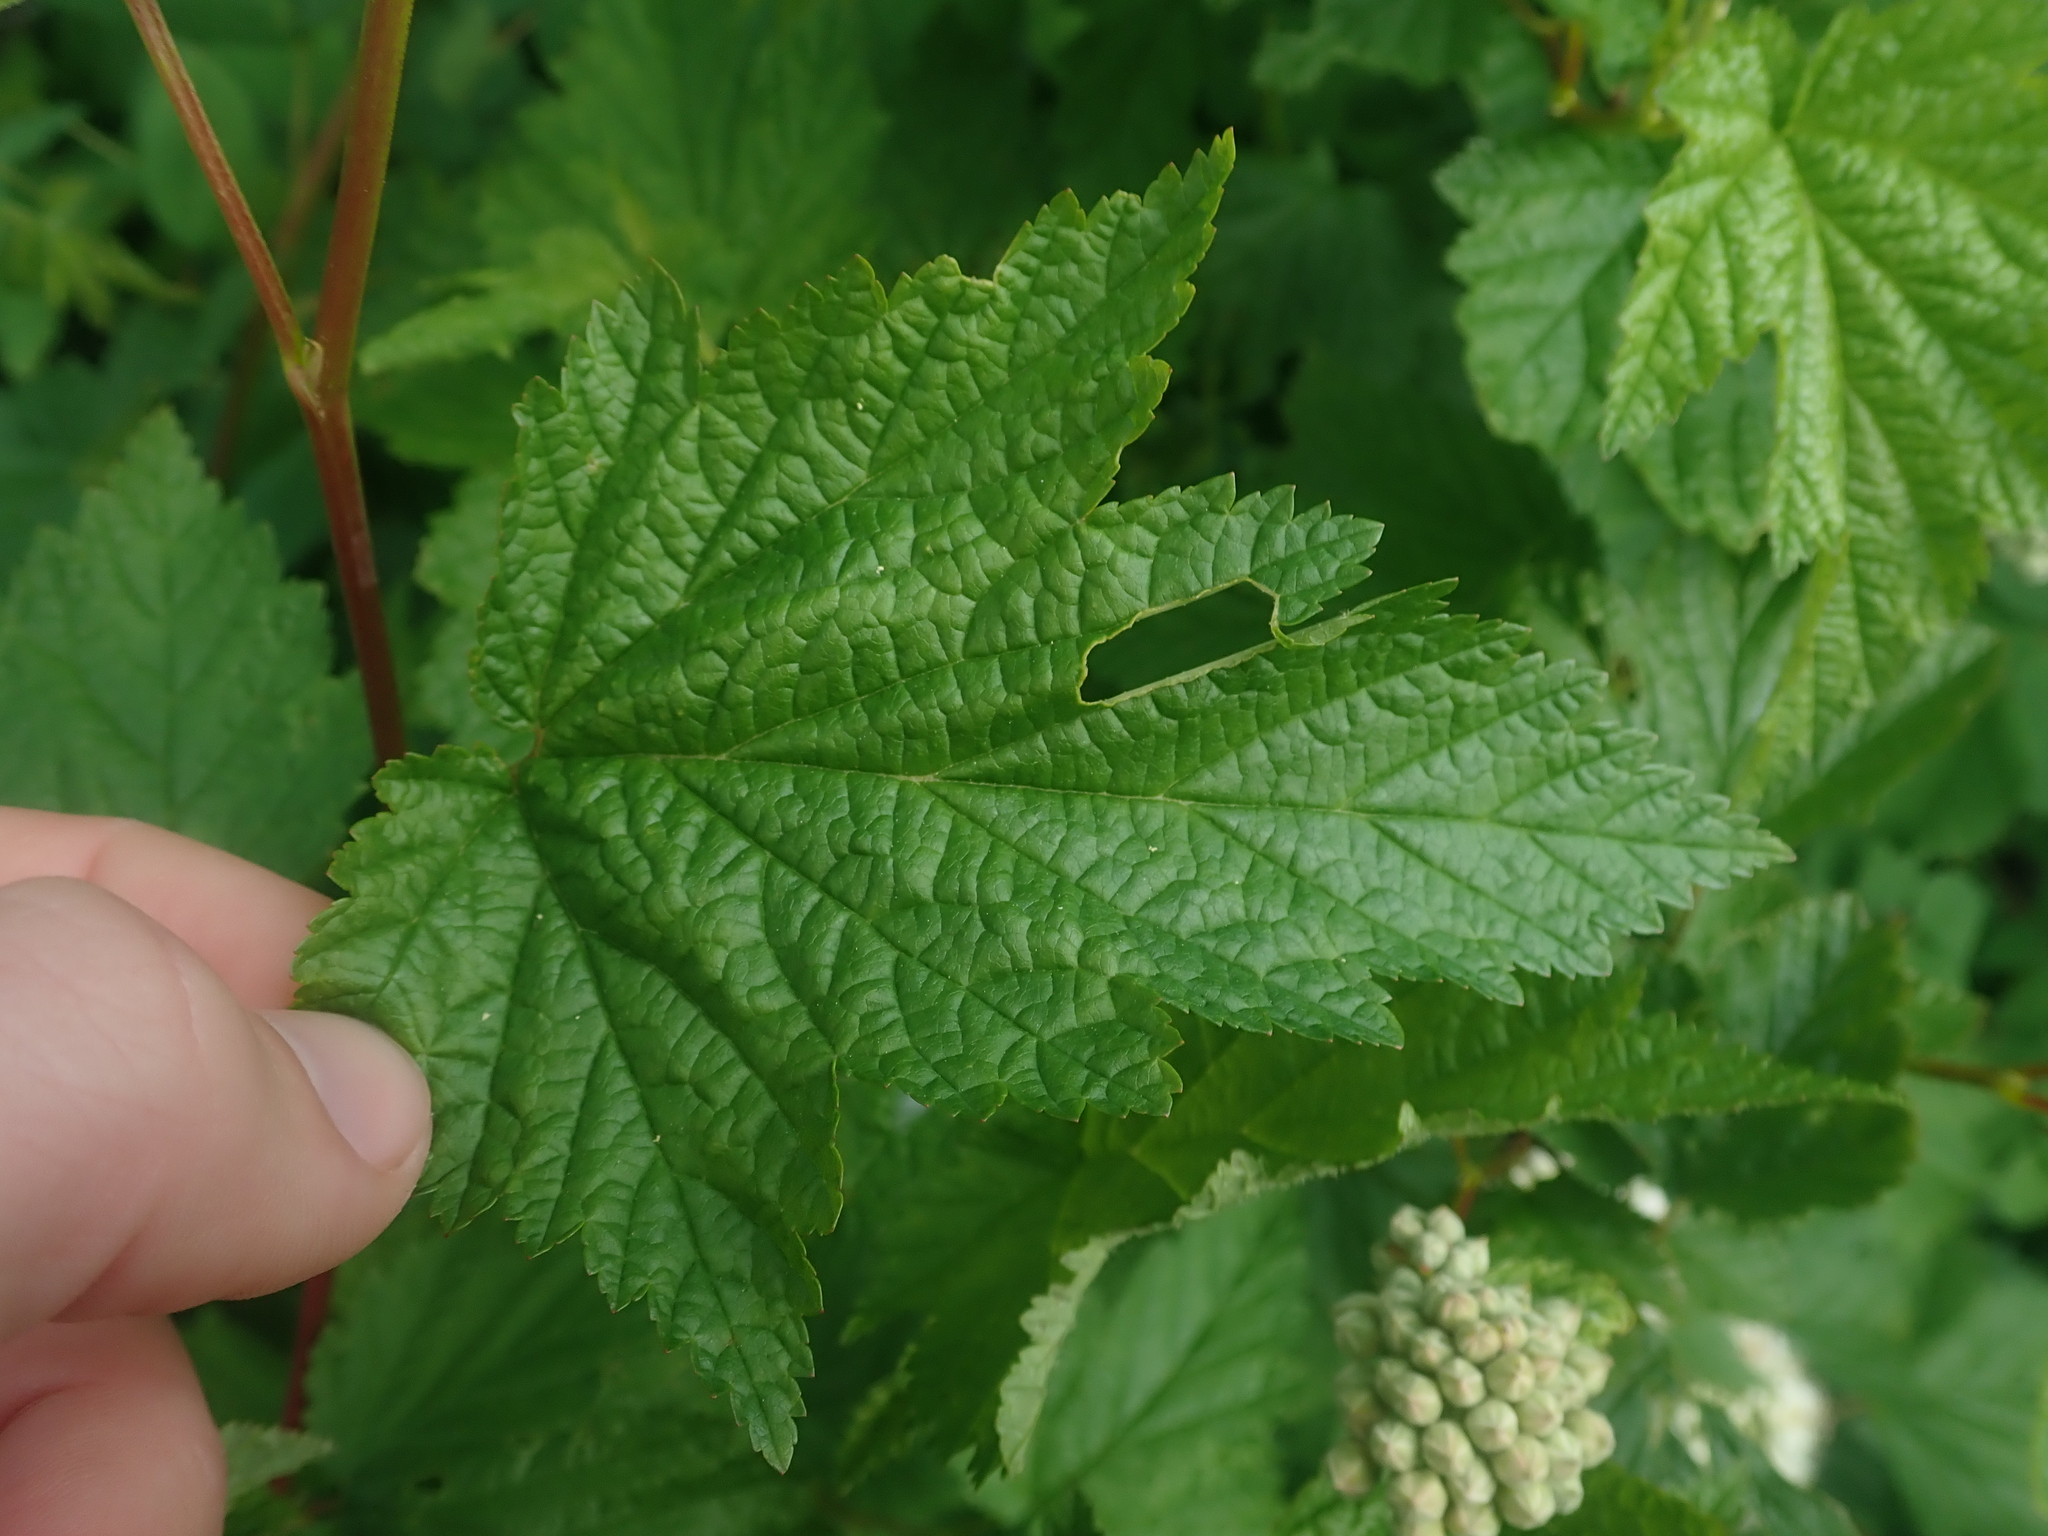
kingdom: Plantae
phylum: Tracheophyta
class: Magnoliopsida
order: Rosales
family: Rosaceae
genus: Physocarpus
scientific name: Physocarpus capitatus
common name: Pacific ninebark
